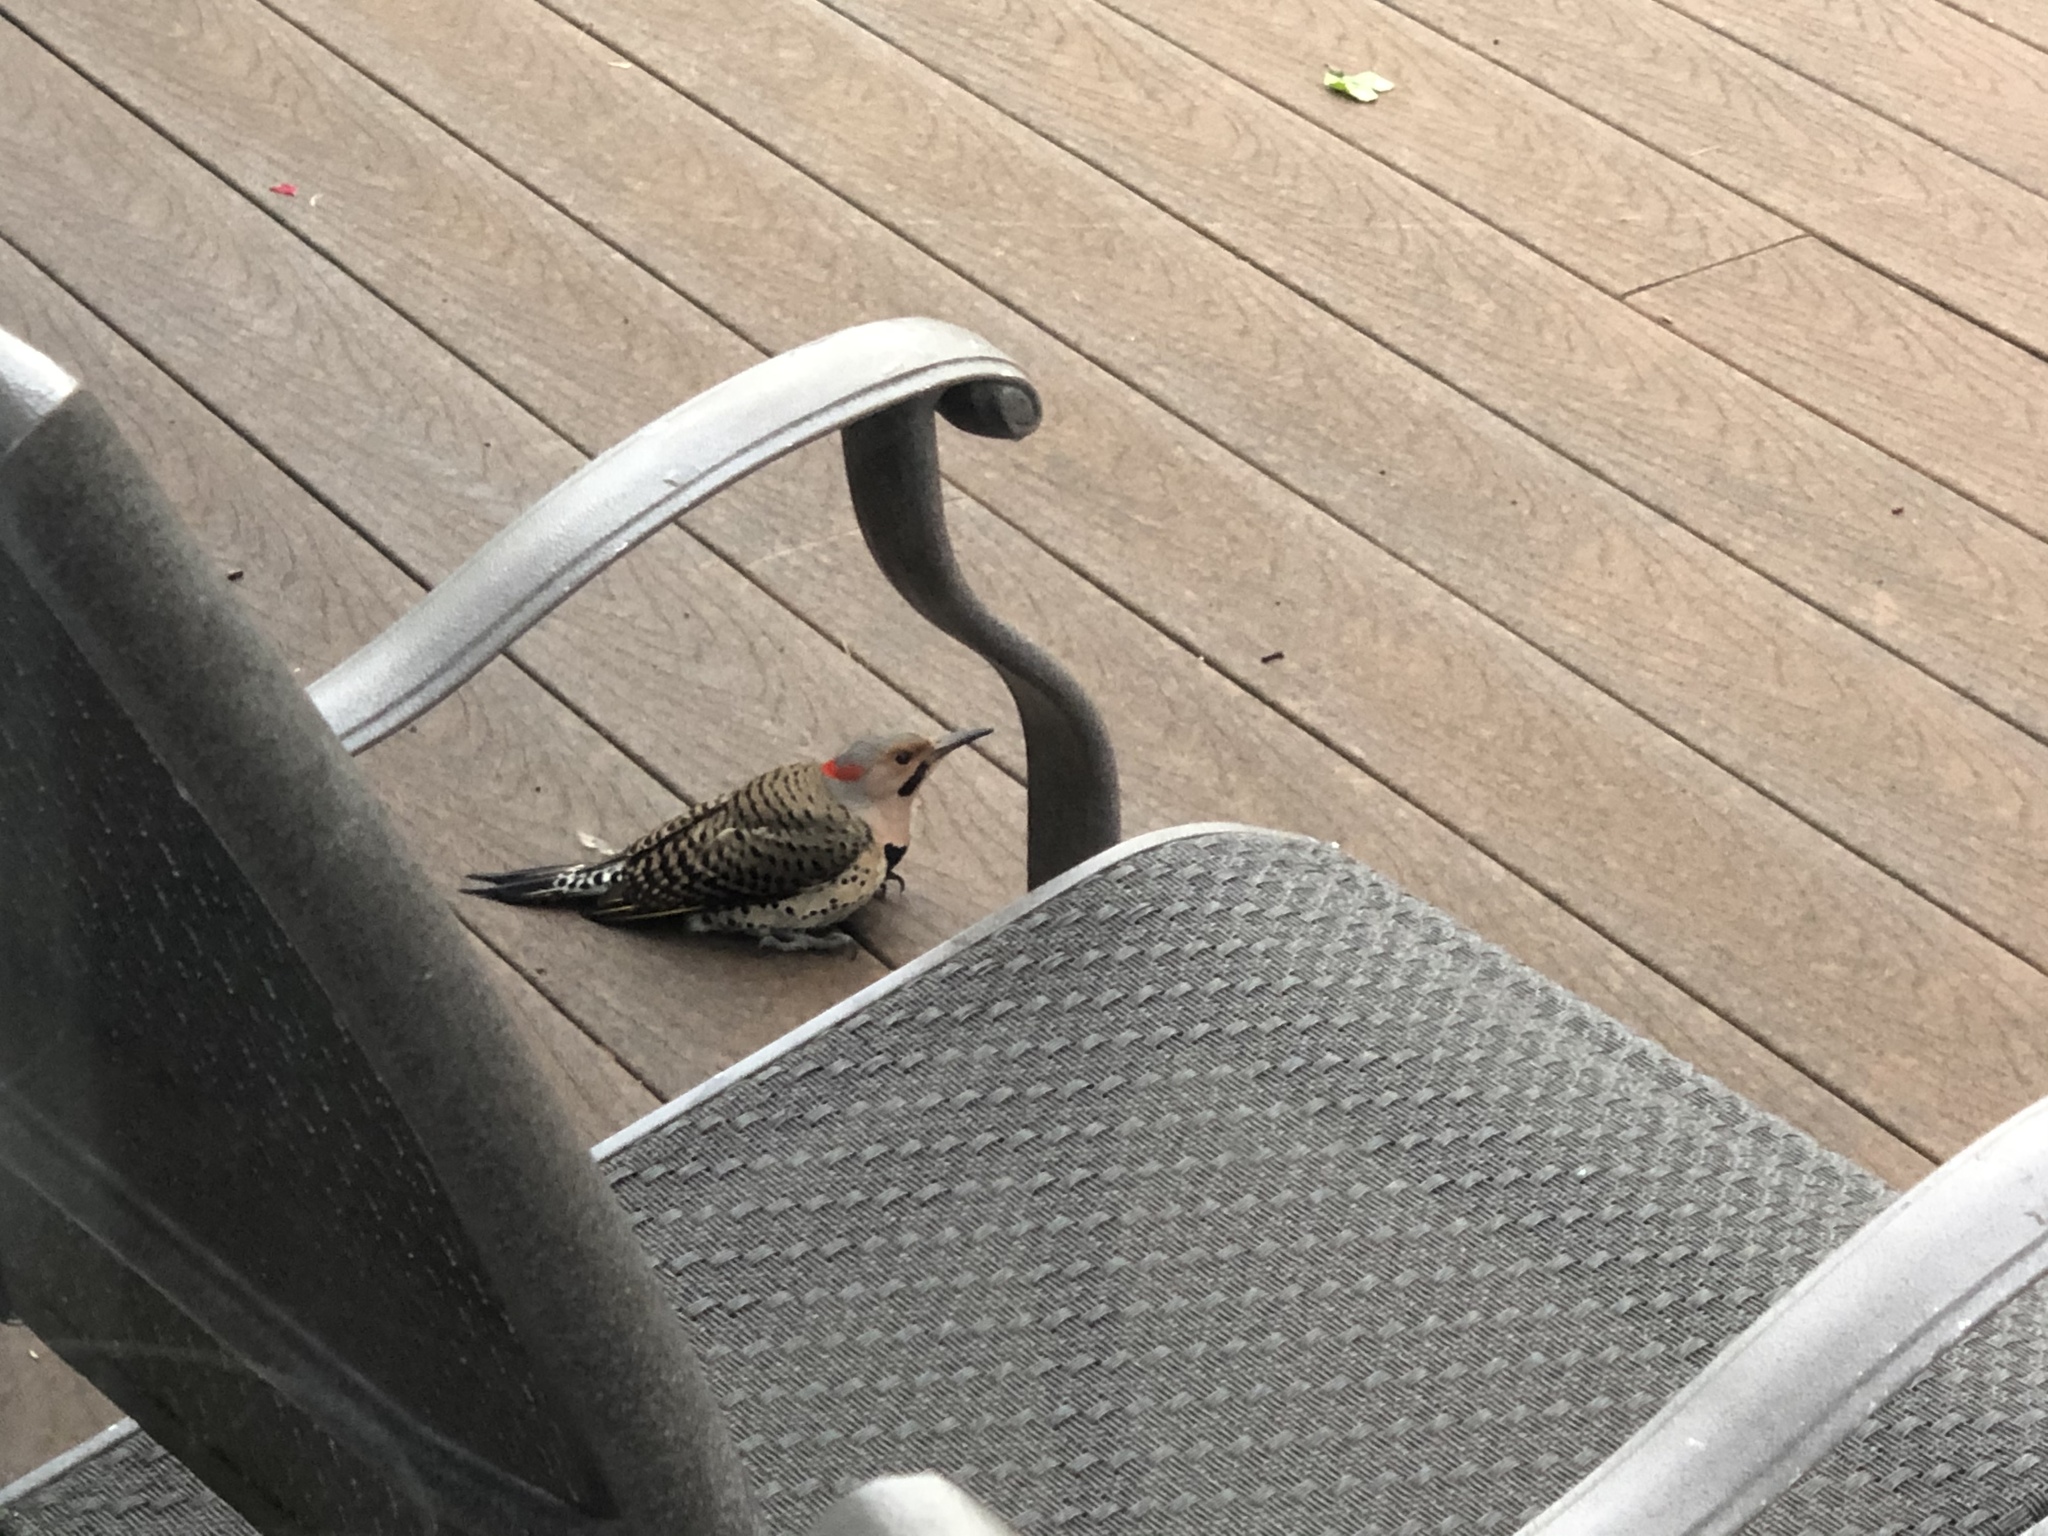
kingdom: Animalia
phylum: Chordata
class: Aves
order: Piciformes
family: Picidae
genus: Colaptes
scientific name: Colaptes auratus
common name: Northern flicker
